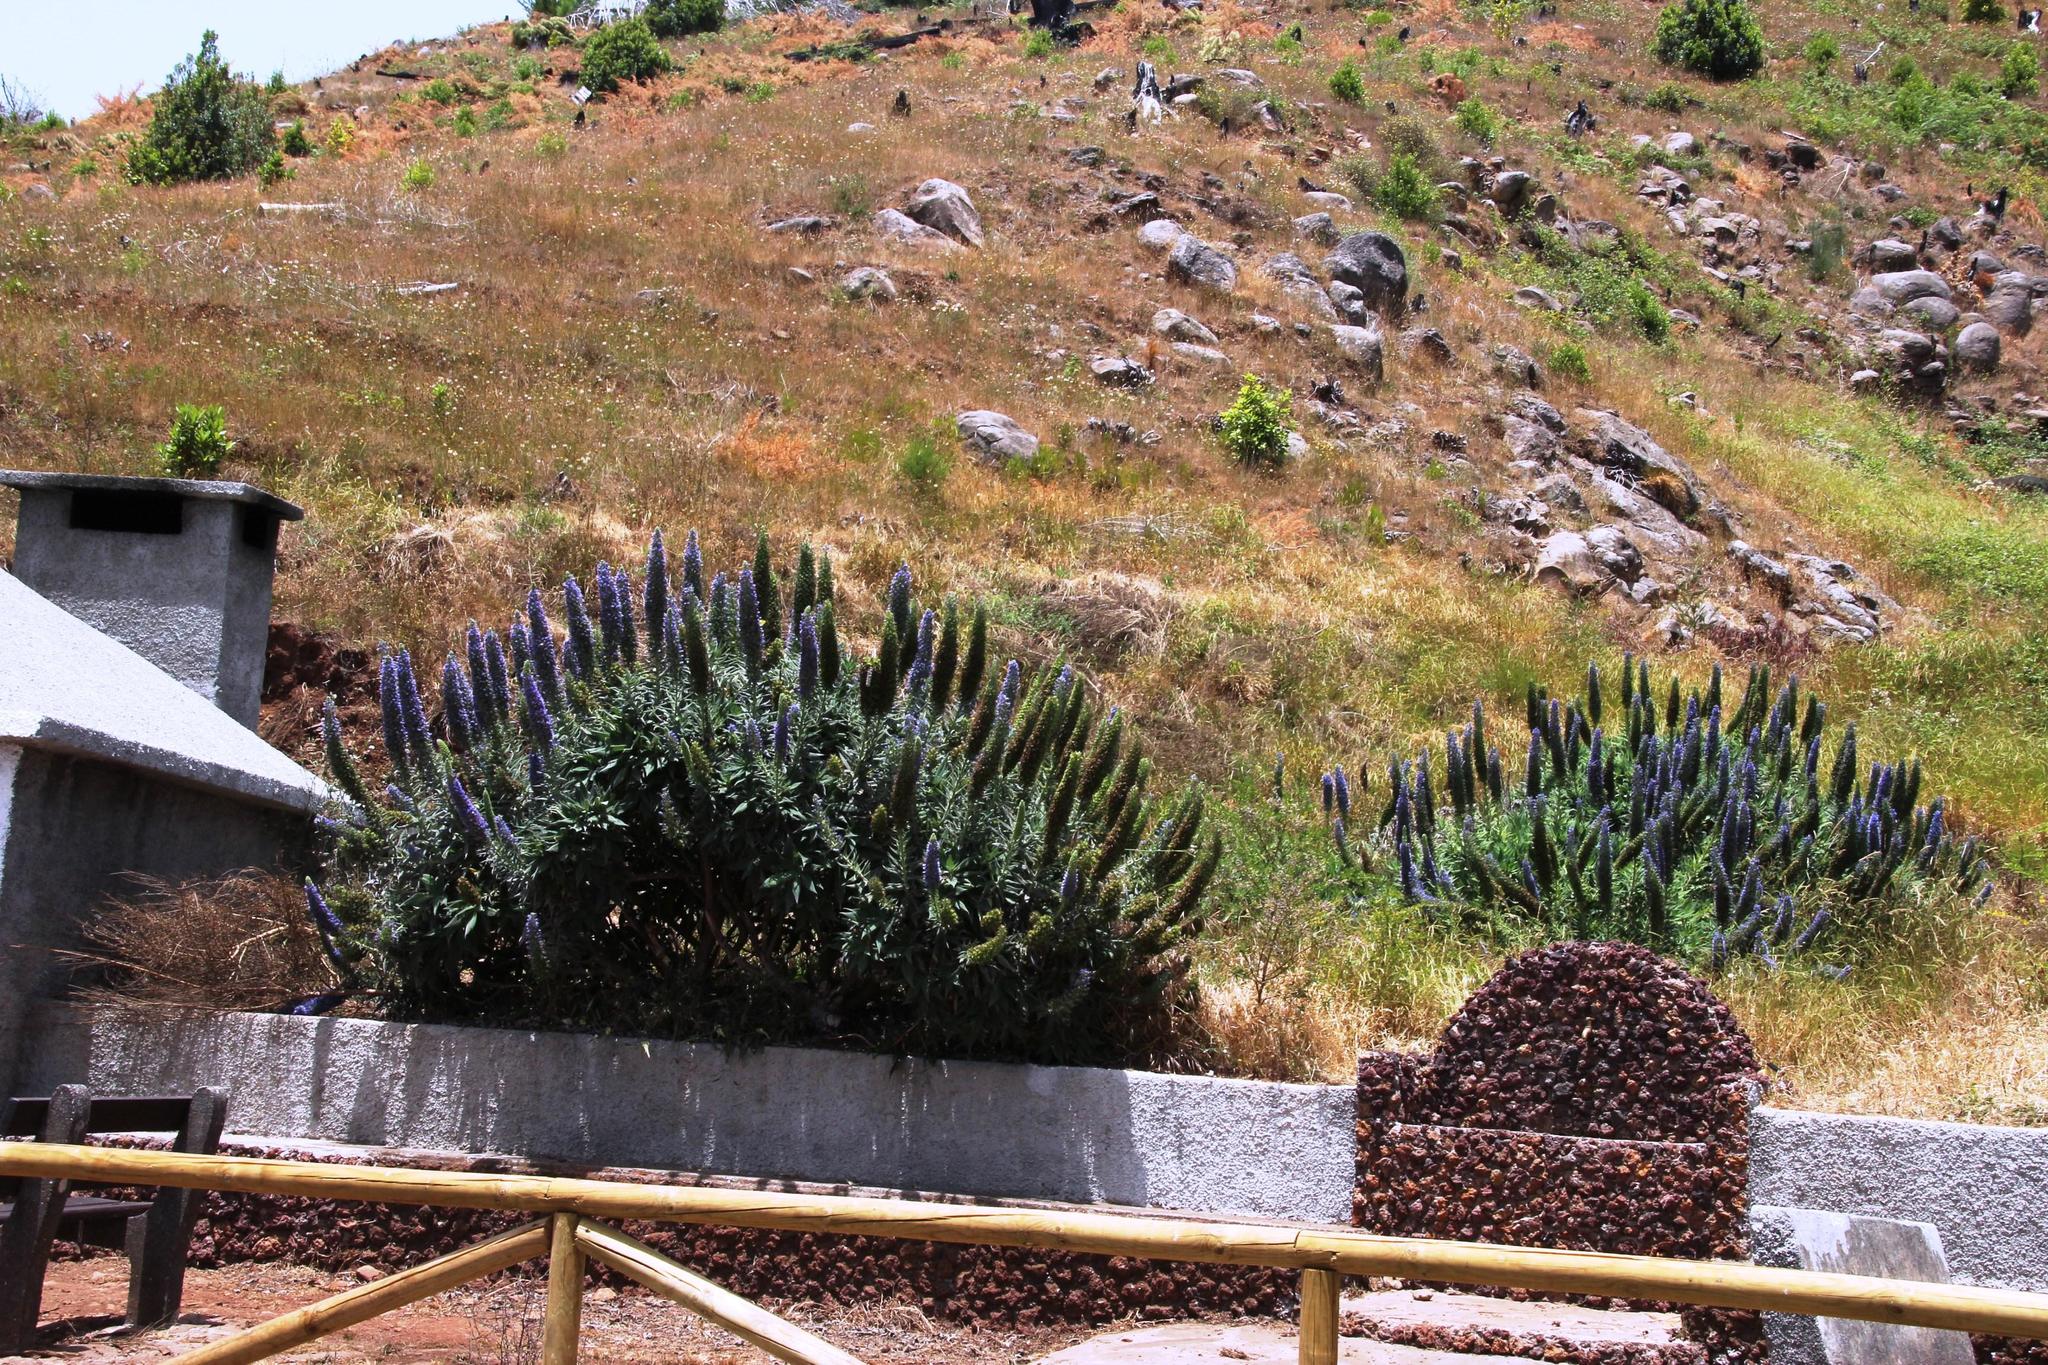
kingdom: Plantae
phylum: Tracheophyta
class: Magnoliopsida
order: Boraginales
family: Boraginaceae
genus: Echium
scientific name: Echium candicans
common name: Pride of madeira
